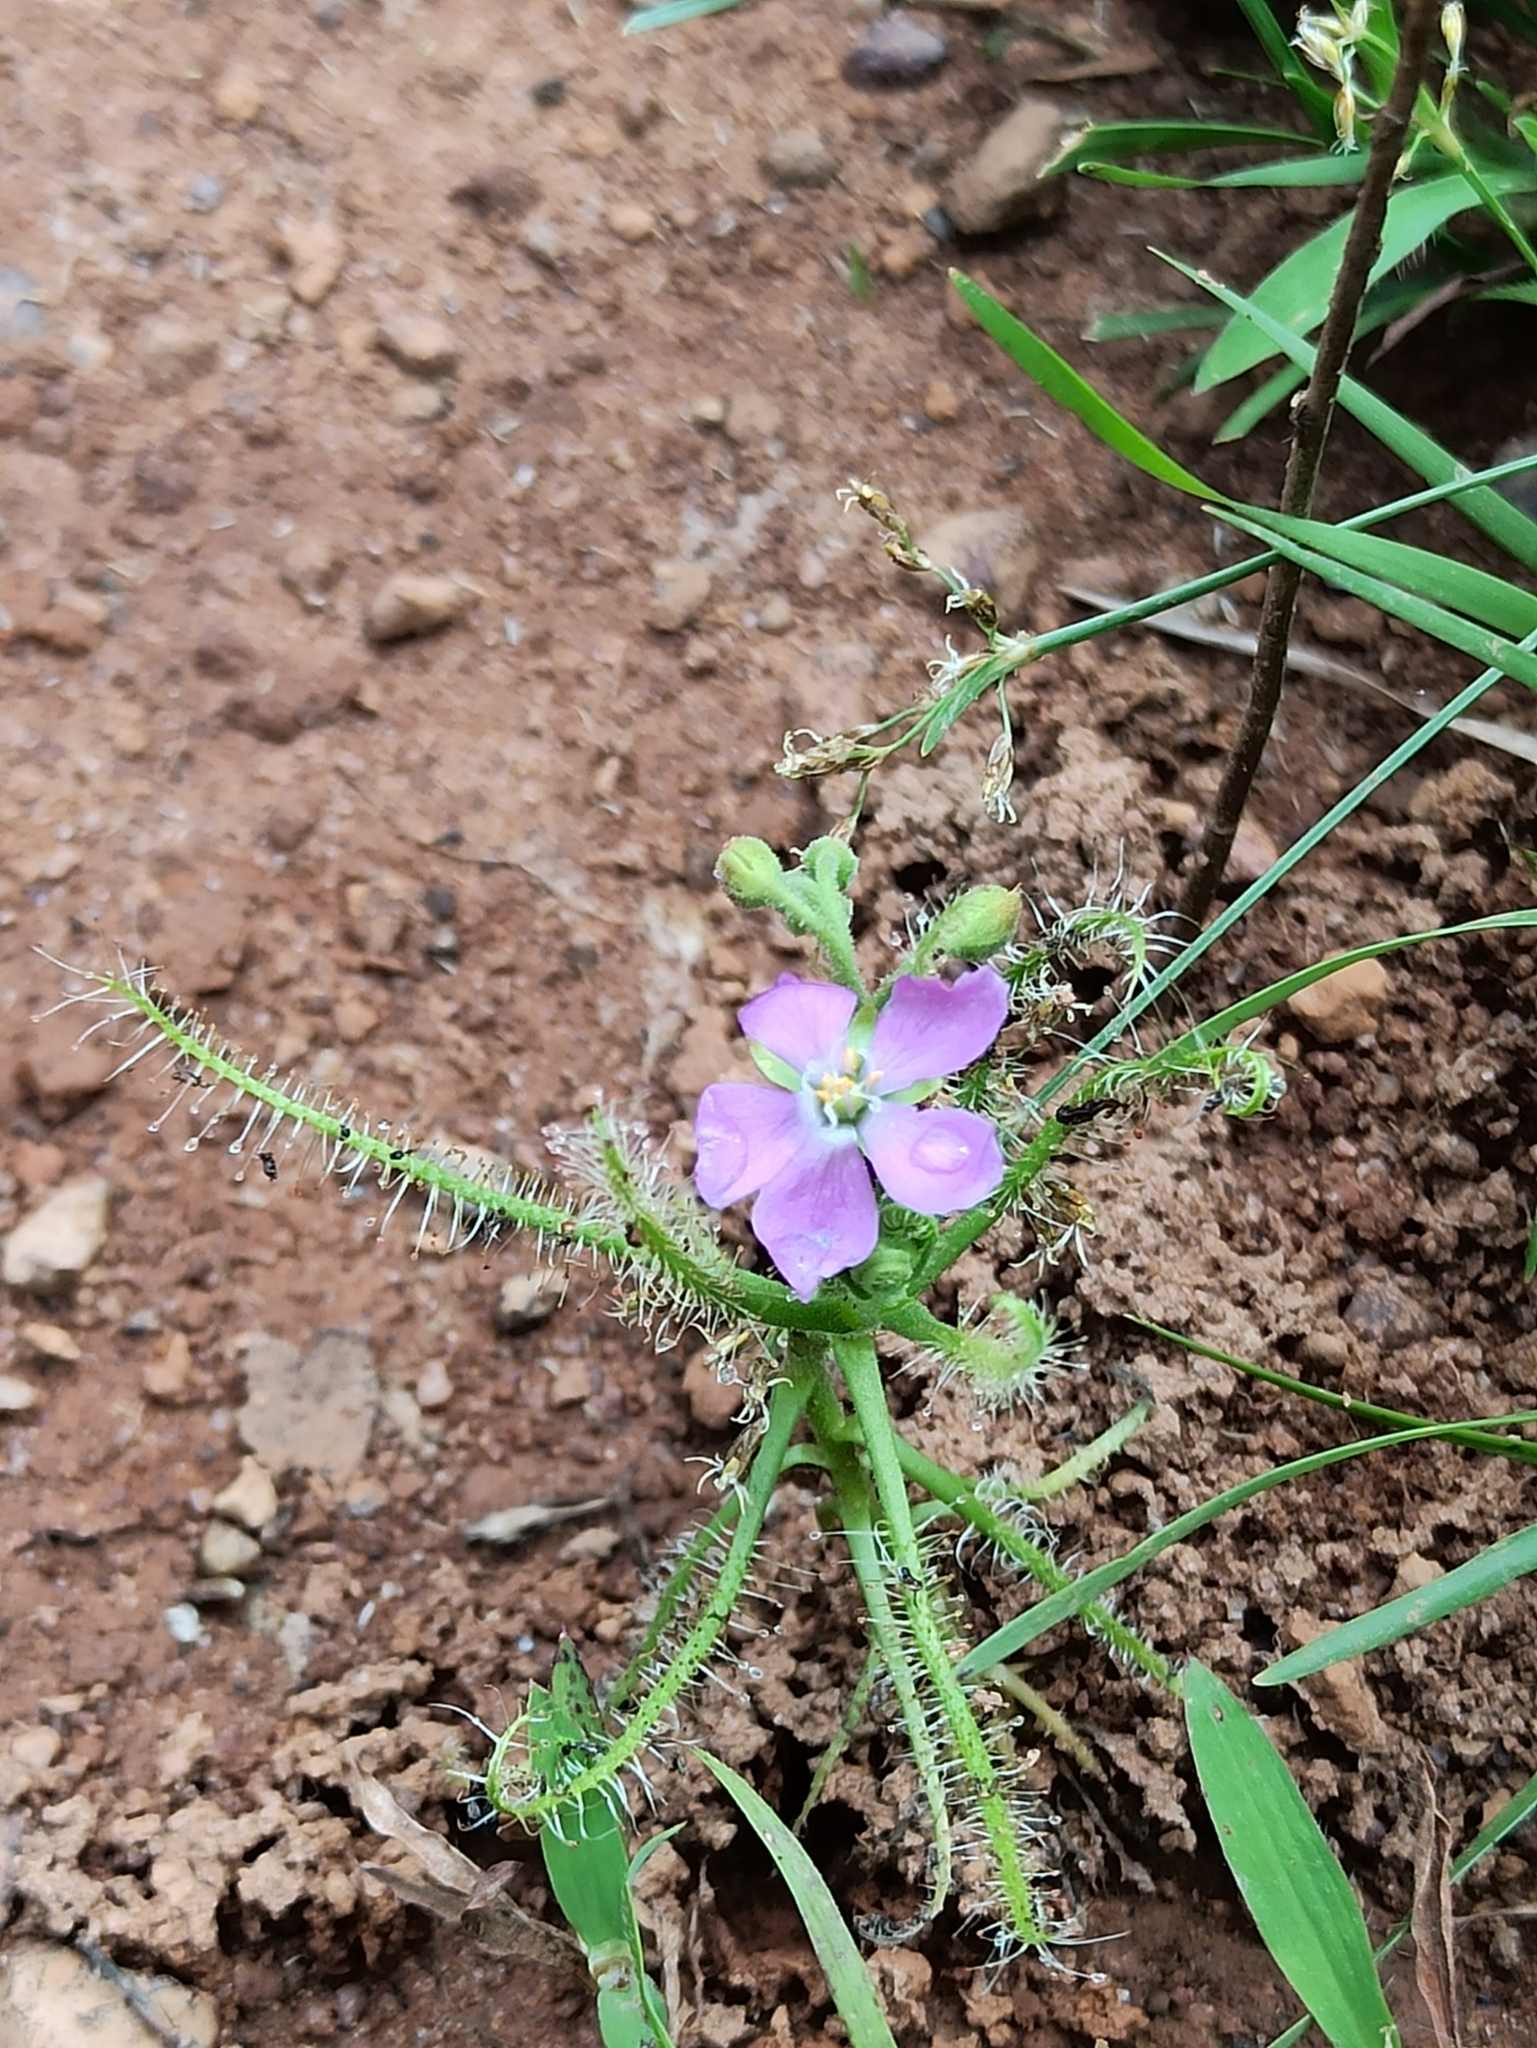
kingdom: Plantae
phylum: Tracheophyta
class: Magnoliopsida
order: Caryophyllales
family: Droseraceae
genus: Drosera
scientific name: Drosera indica
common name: Indian sundew
